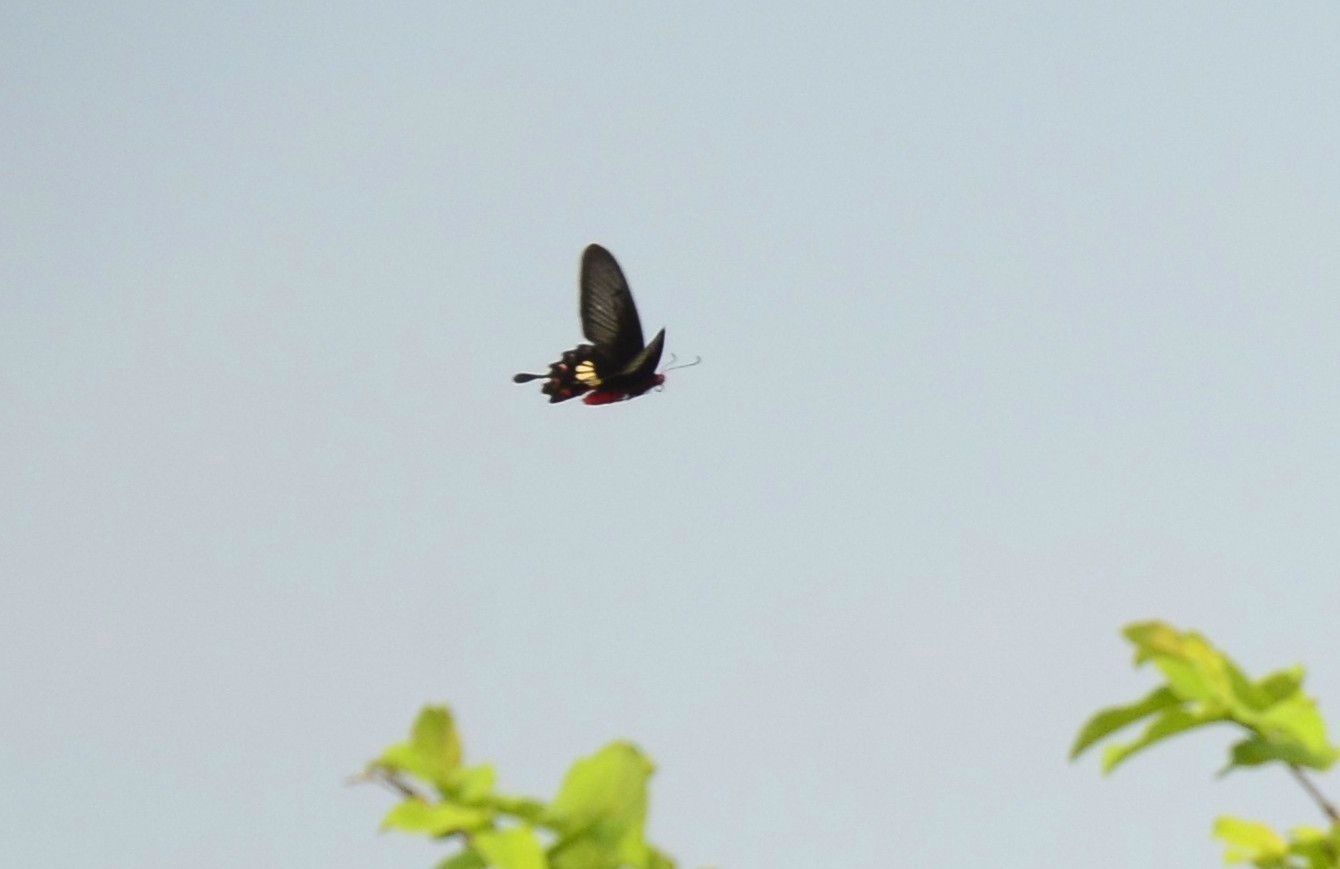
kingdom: Animalia
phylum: Arthropoda
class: Insecta
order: Lepidoptera
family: Papilionidae
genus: Pachliopta
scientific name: Pachliopta aristolochiae
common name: Common rose
